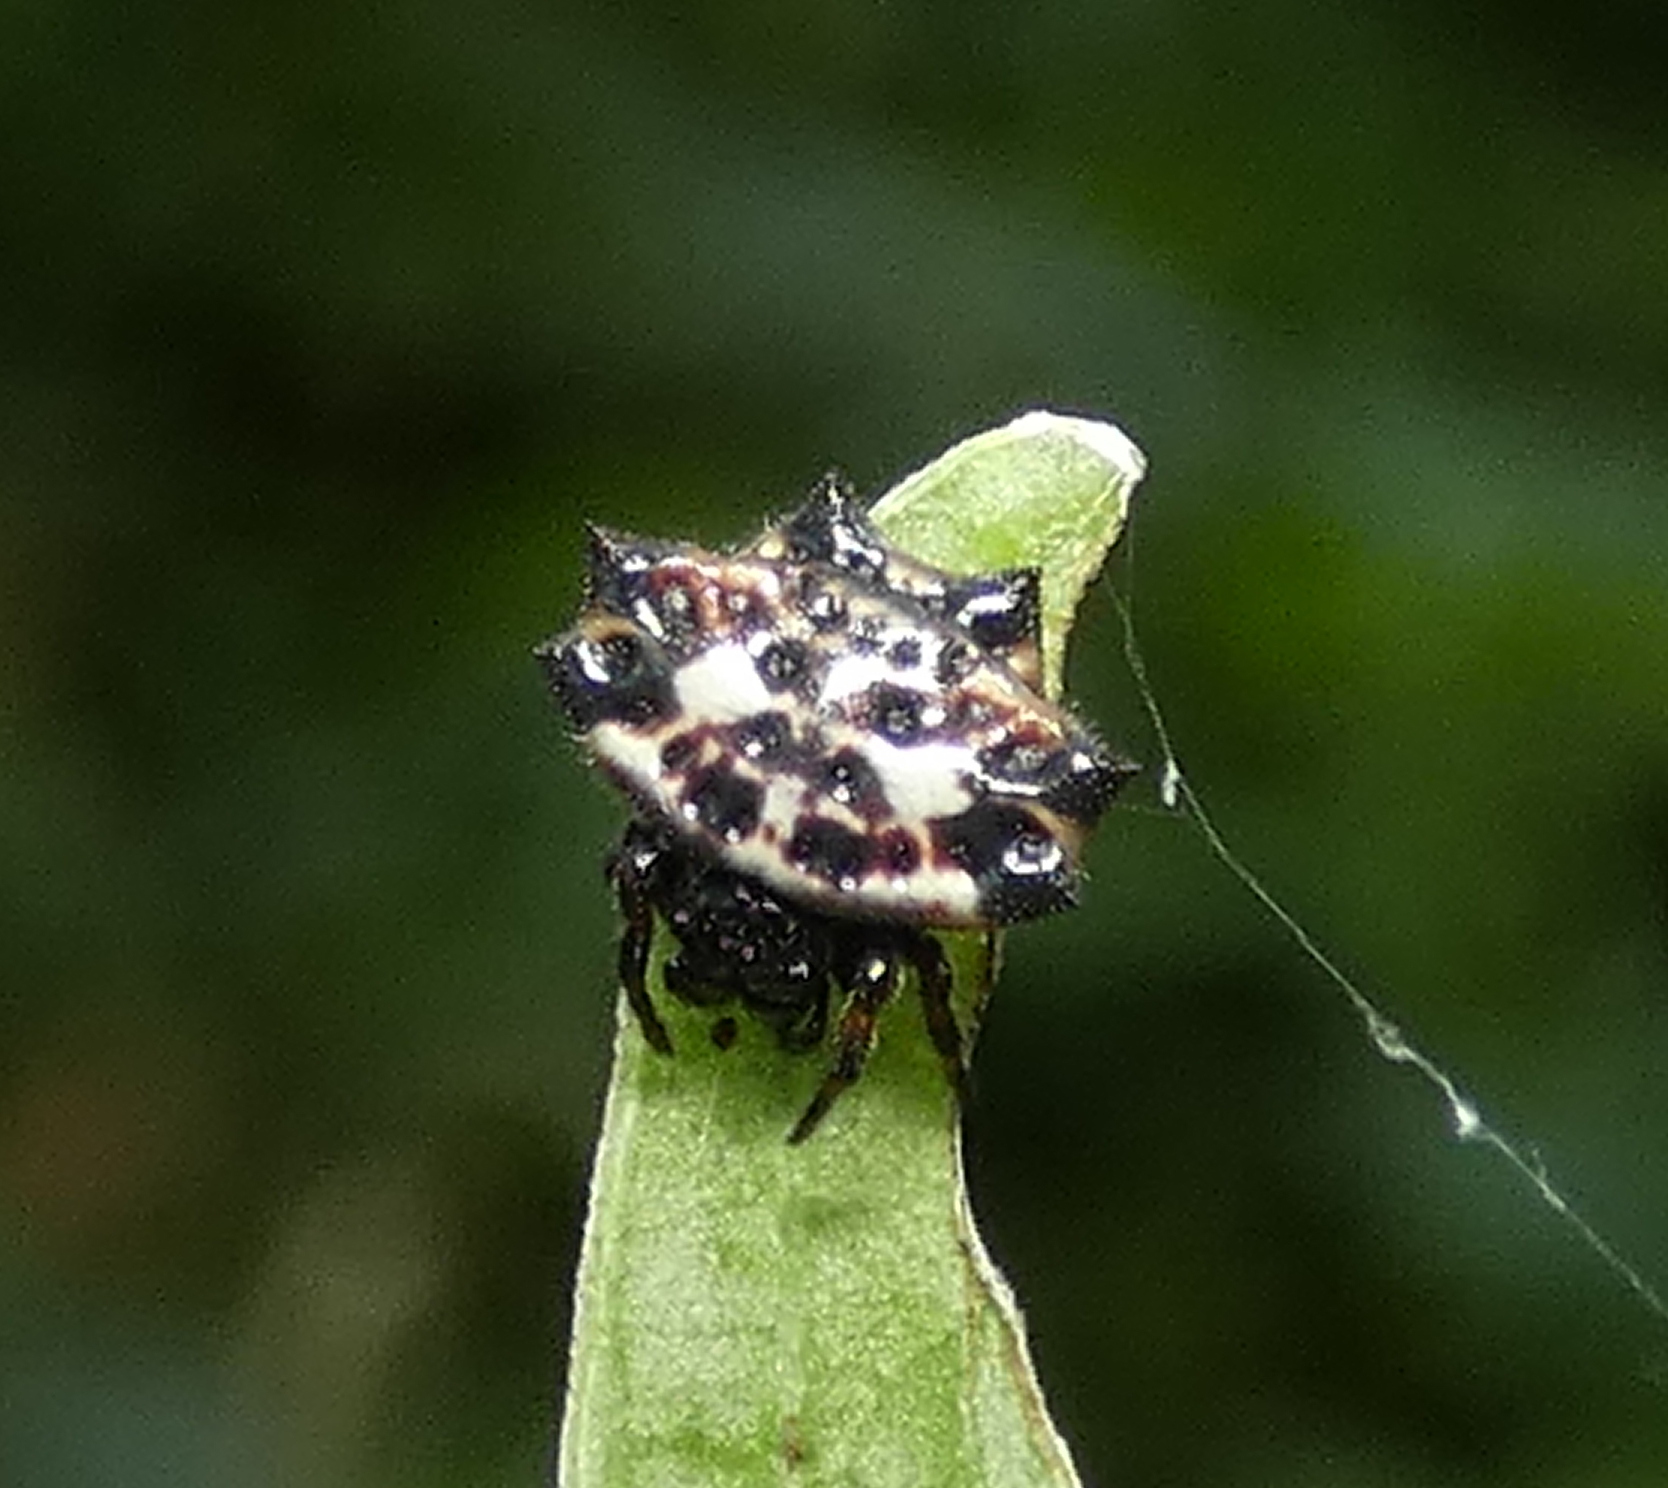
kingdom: Animalia
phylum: Arthropoda
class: Arachnida
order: Araneae
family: Araneidae
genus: Gasteracantha
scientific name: Gasteracantha cancriformis
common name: Orb weavers
